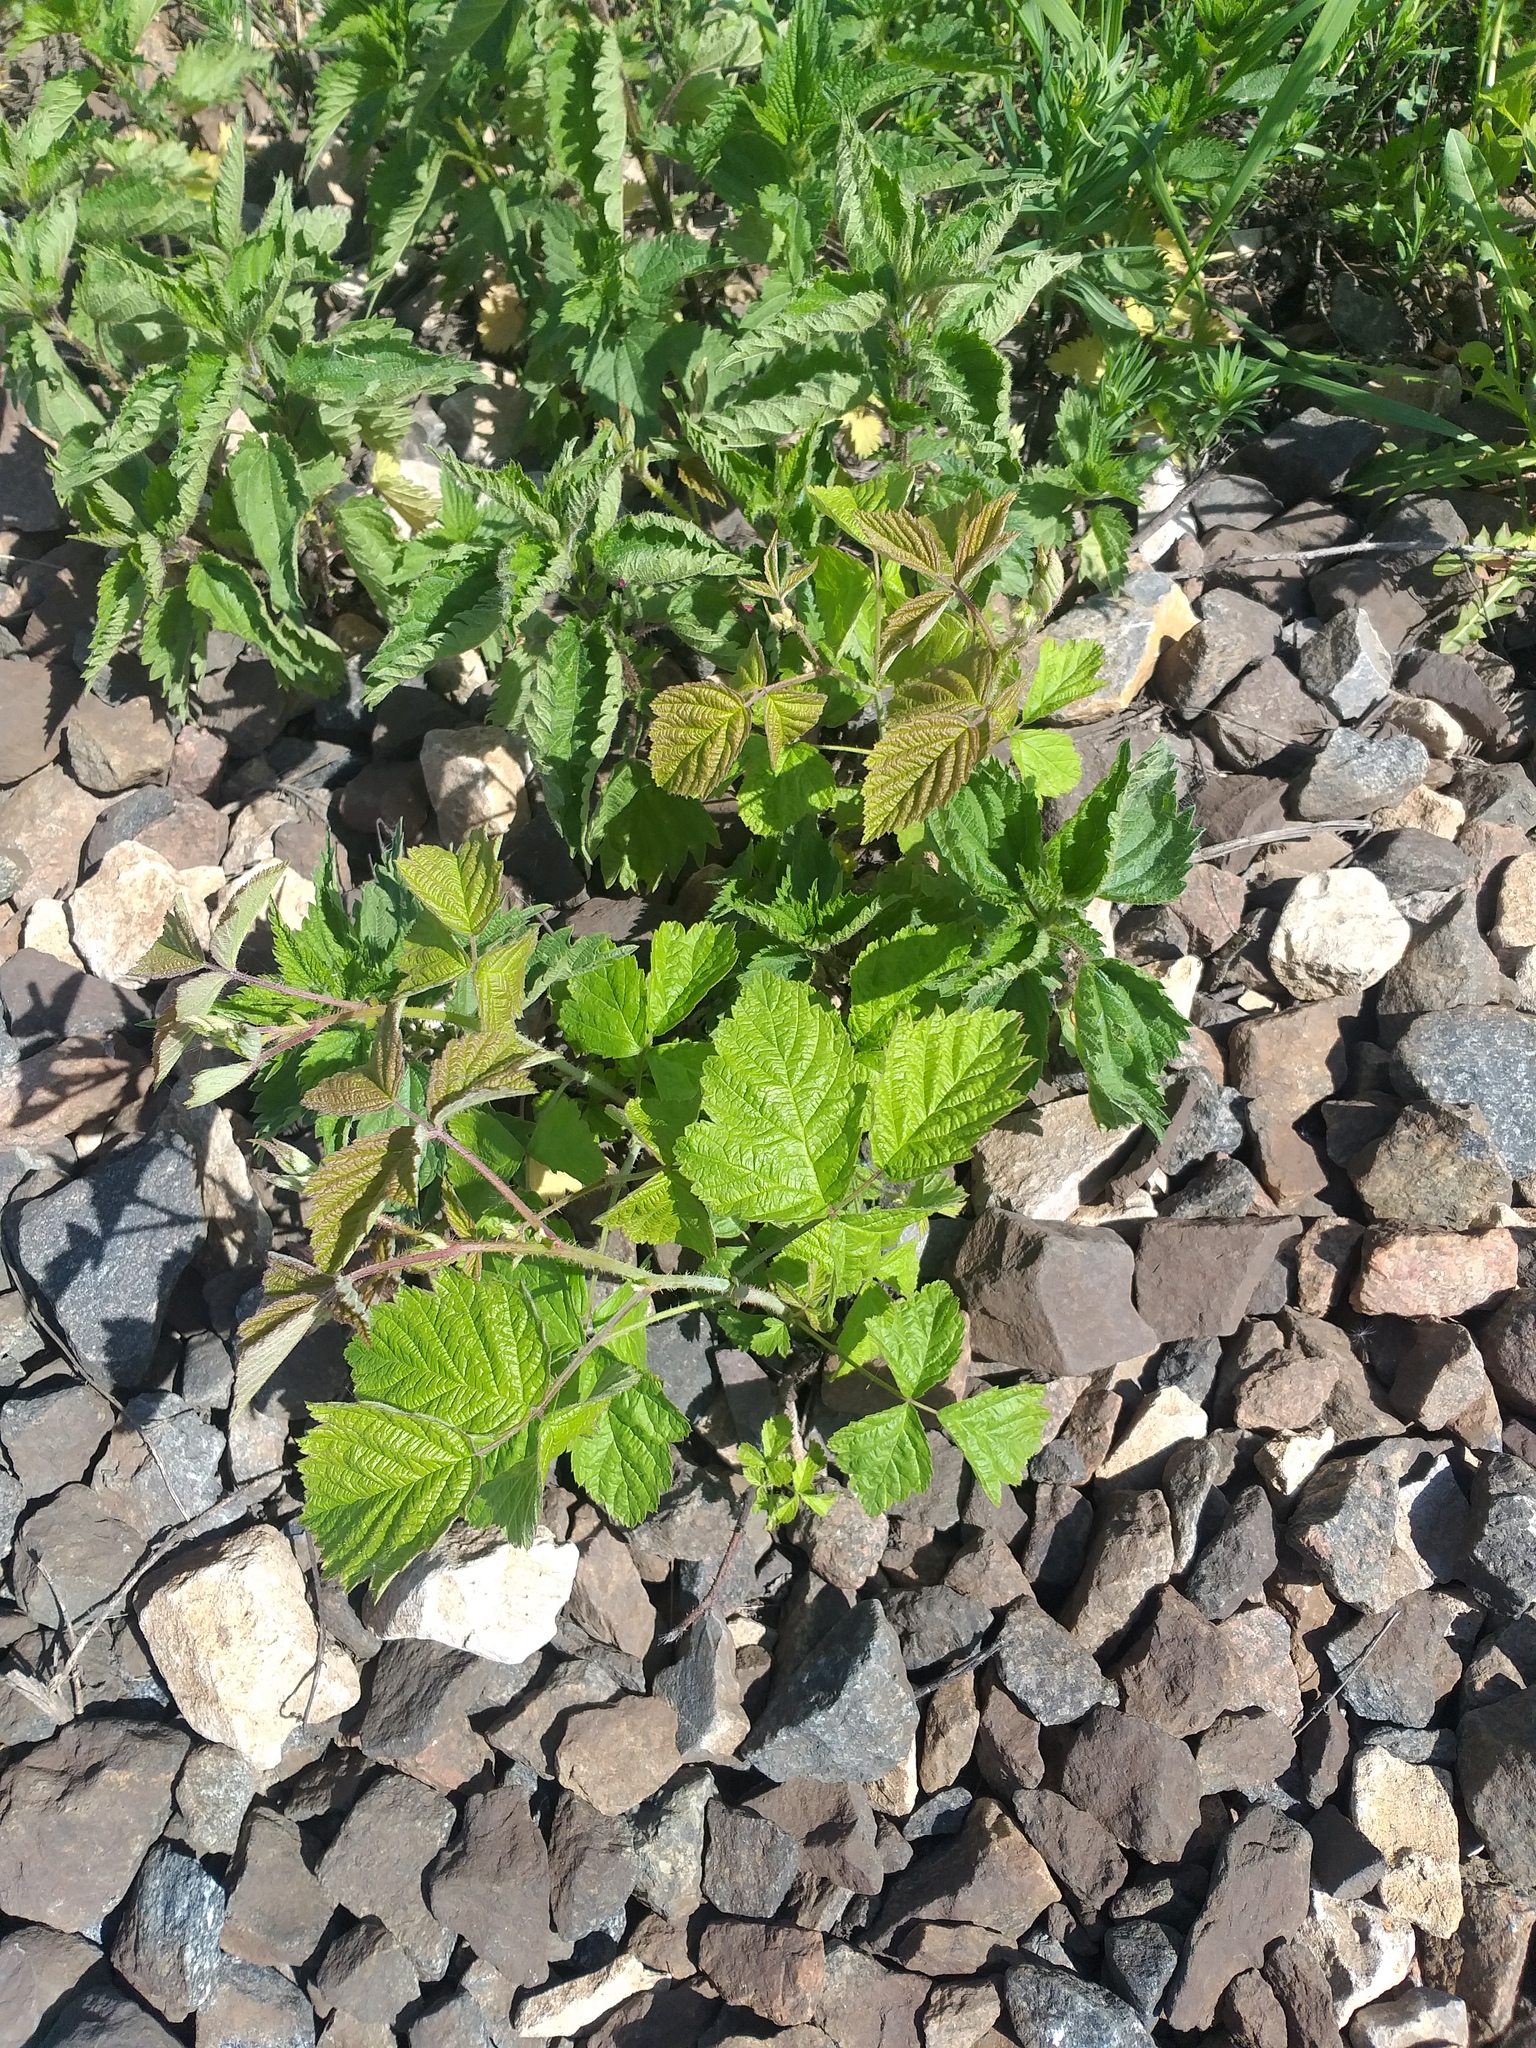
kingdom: Plantae
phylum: Tracheophyta
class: Magnoliopsida
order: Rosales
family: Rosaceae
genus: Rubus
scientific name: Rubus caesius
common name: Dewberry
